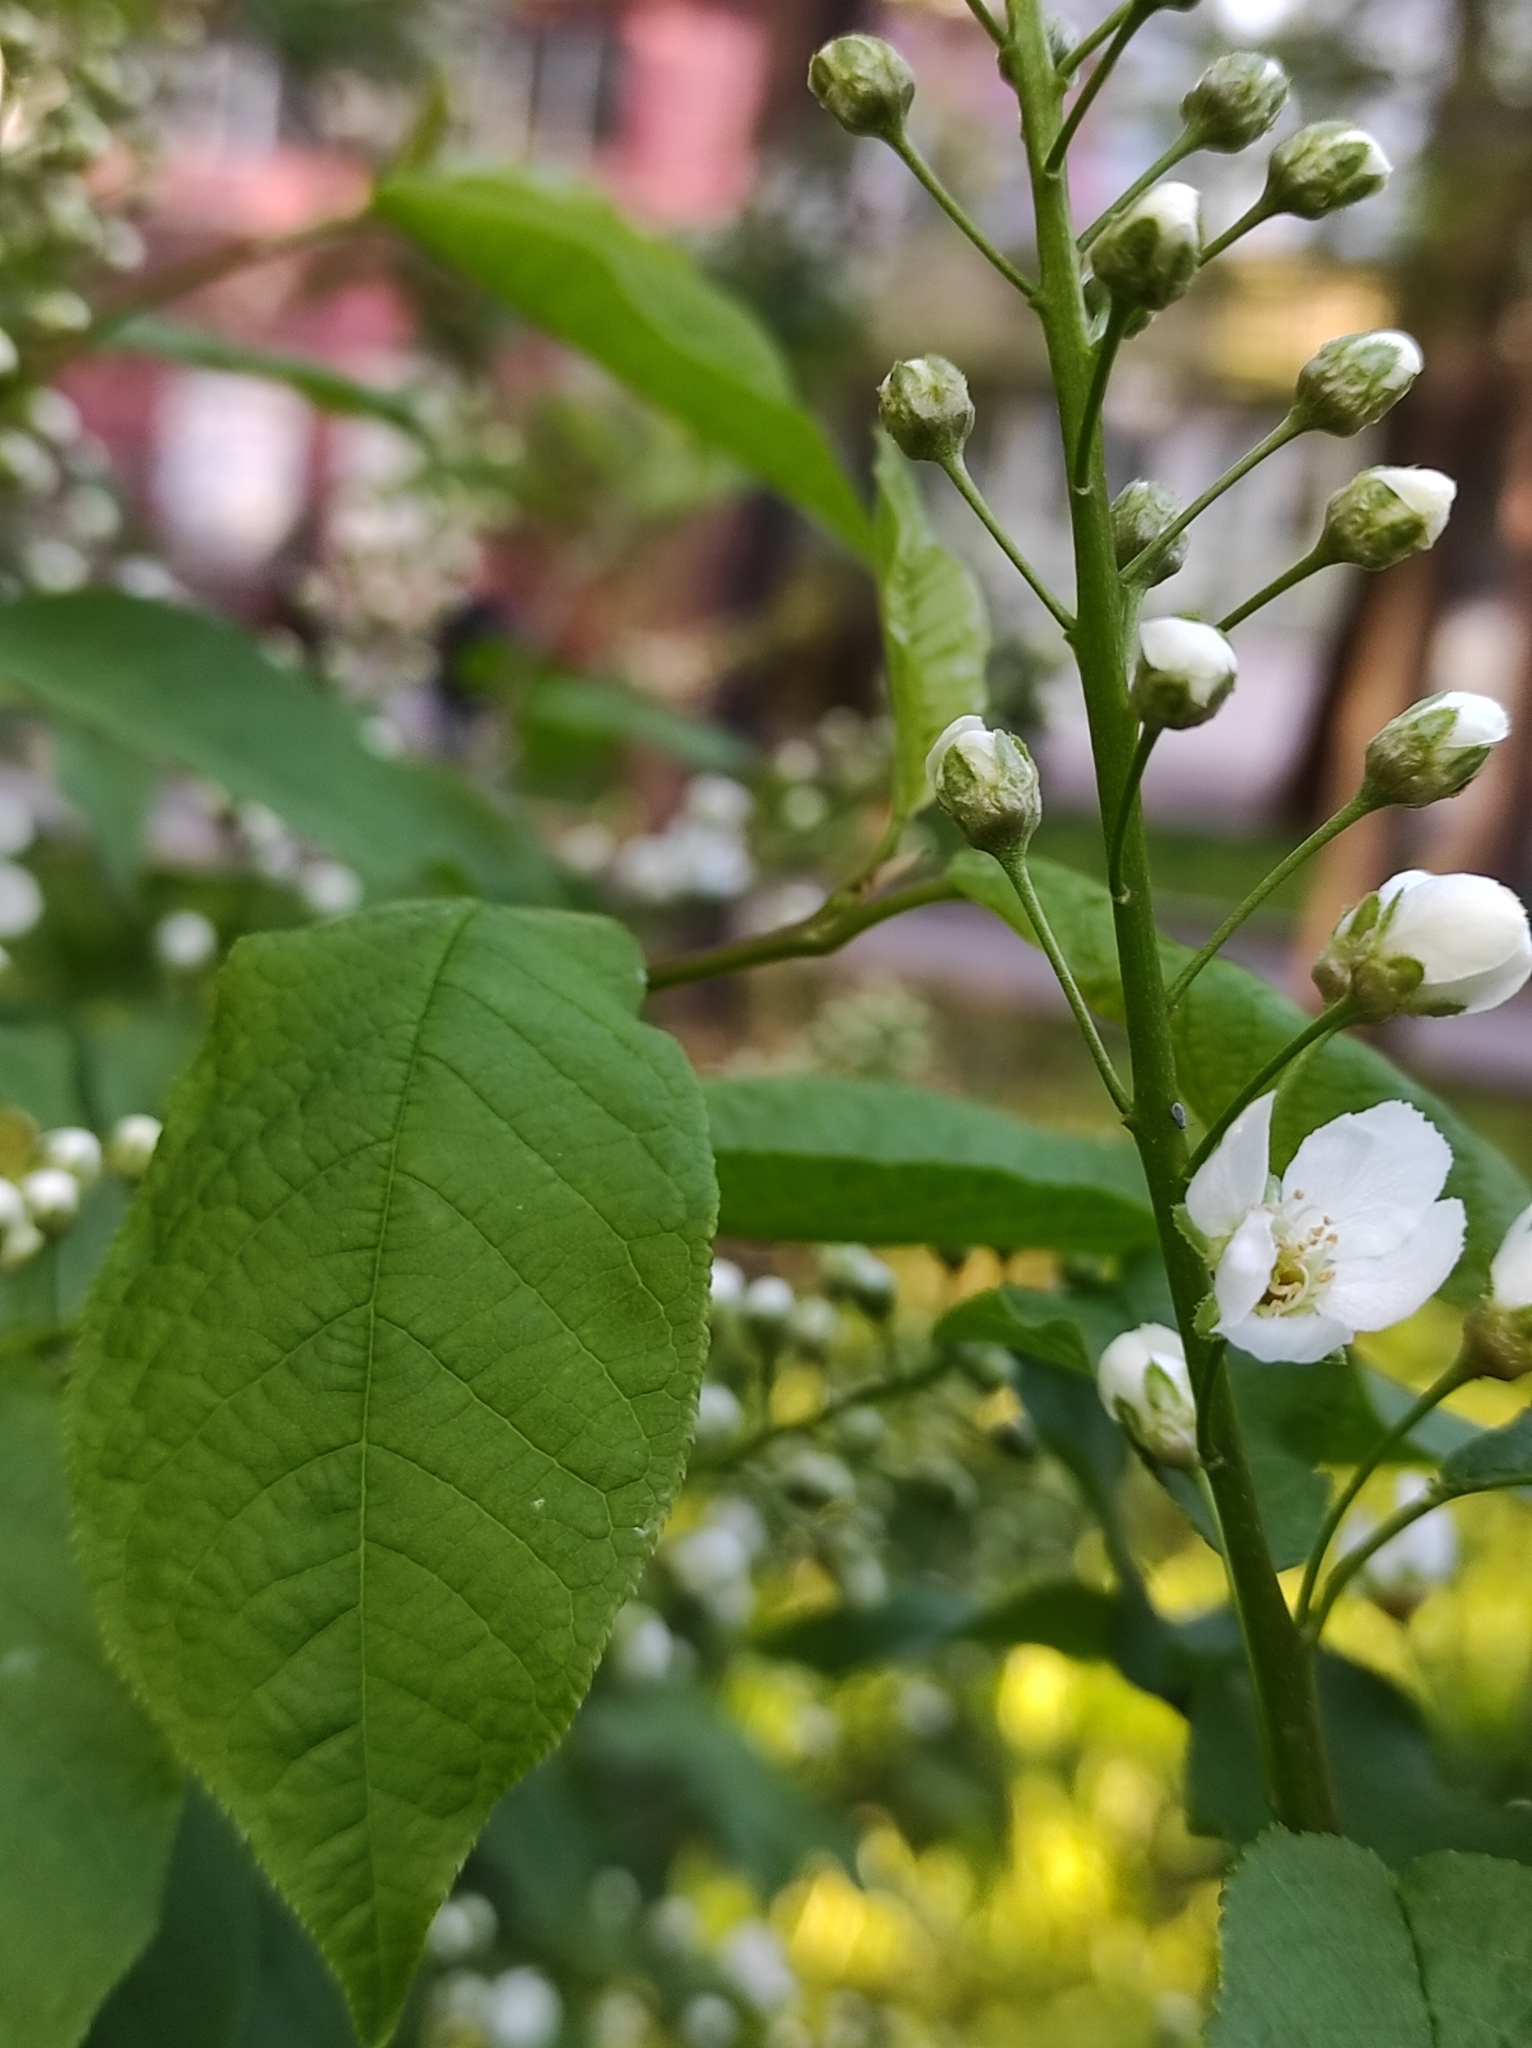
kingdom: Plantae
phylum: Tracheophyta
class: Magnoliopsida
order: Rosales
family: Rosaceae
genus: Prunus
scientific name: Prunus padus
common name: Bird cherry
